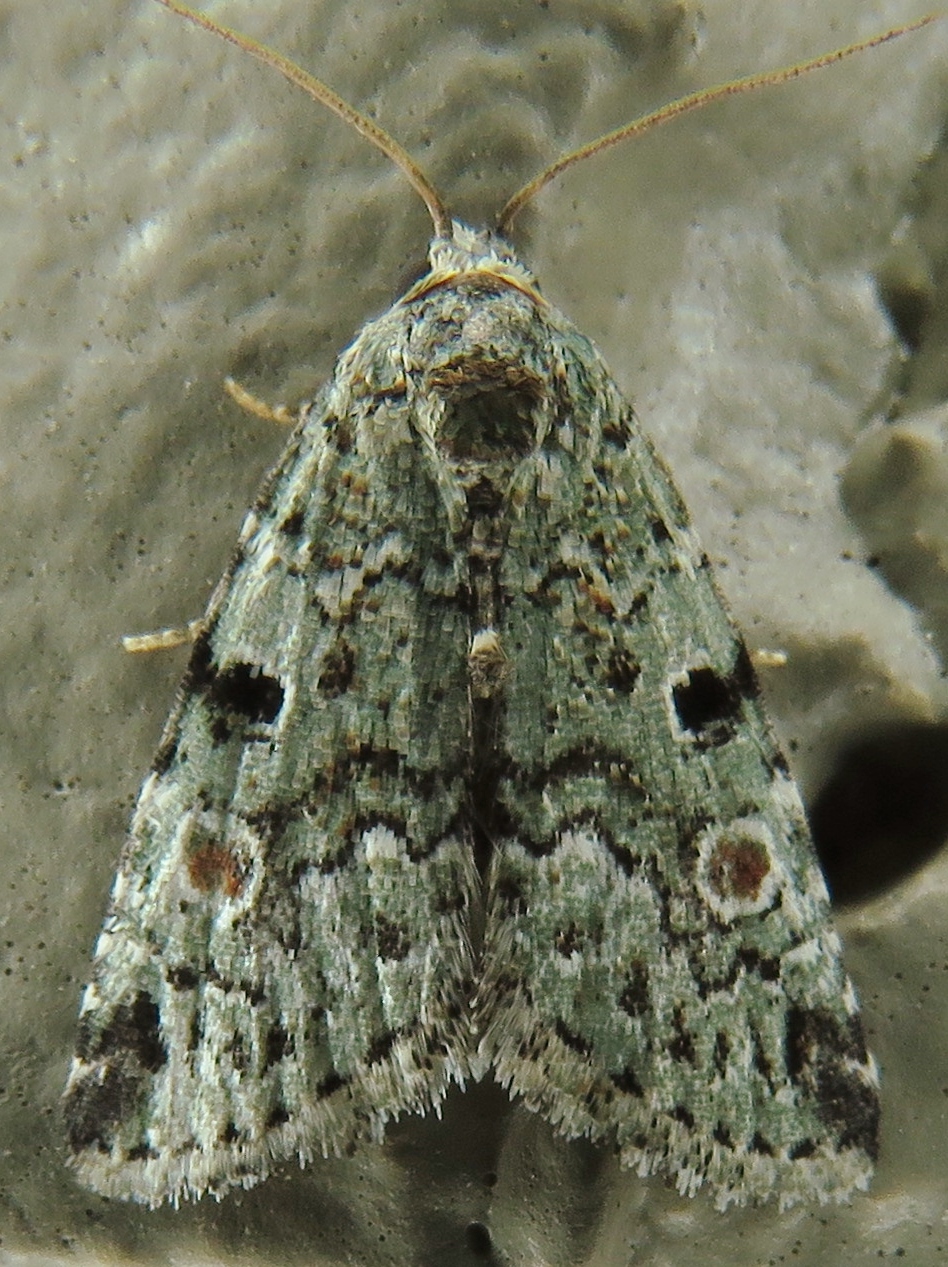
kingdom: Animalia
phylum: Arthropoda
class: Insecta
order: Lepidoptera
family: Noctuidae
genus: Maliattha
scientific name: Maliattha concinnimacula
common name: Red-spotted glyph
